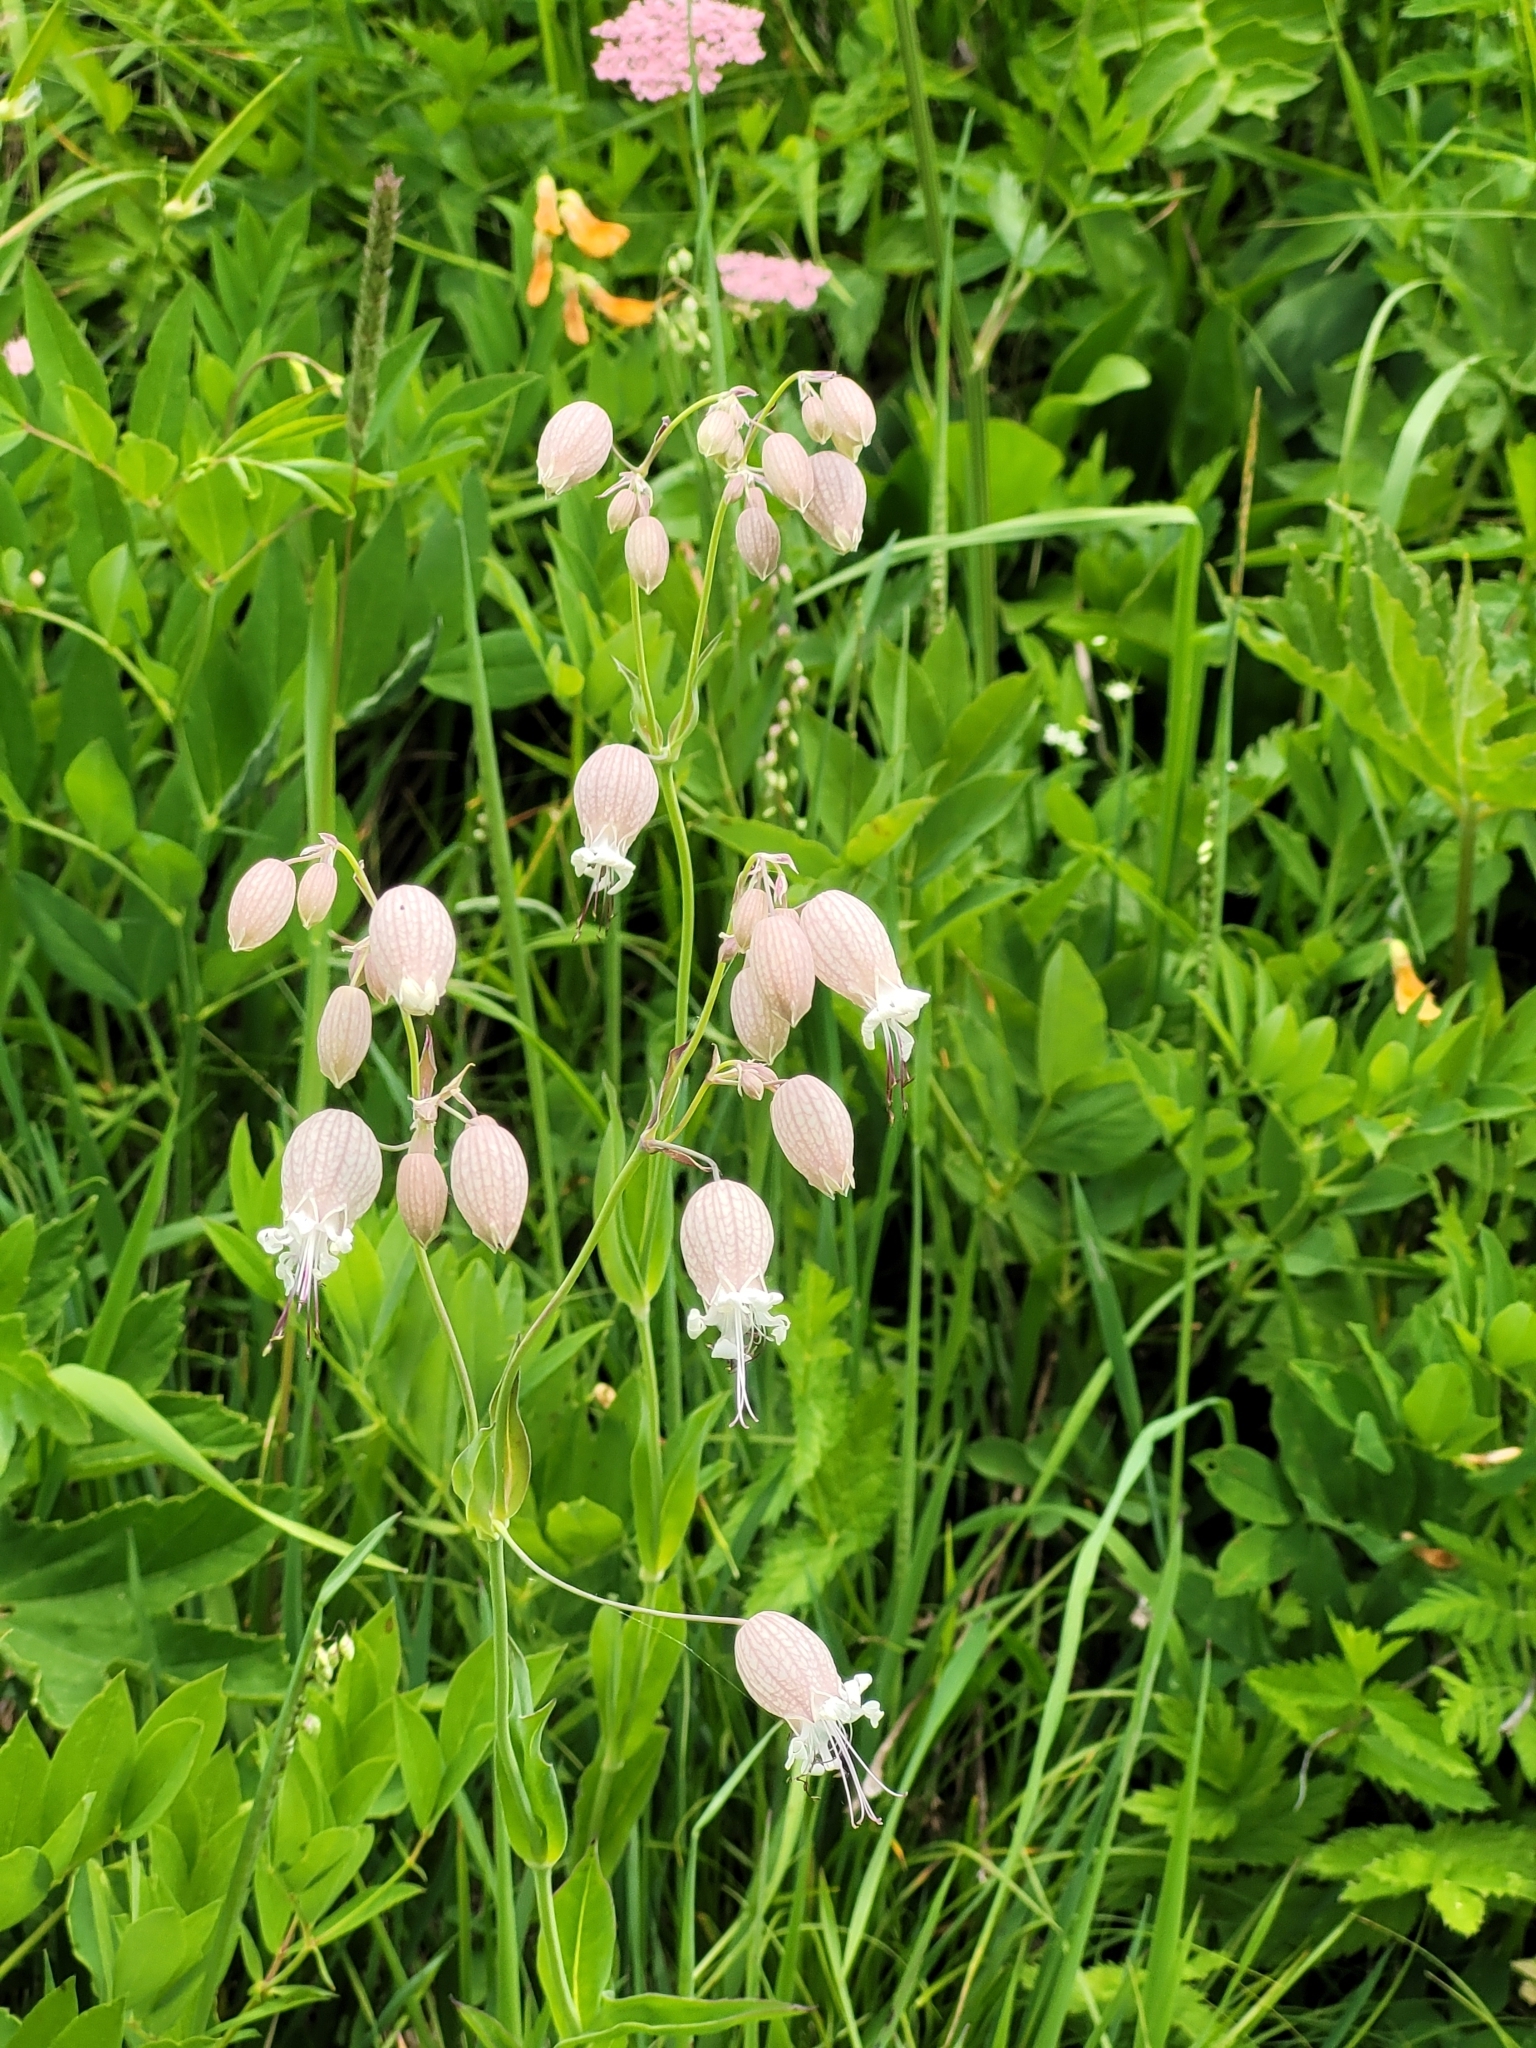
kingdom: Plantae
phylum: Tracheophyta
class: Magnoliopsida
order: Caryophyllales
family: Caryophyllaceae
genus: Silene
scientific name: Silene vulgaris
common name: Bladder campion
